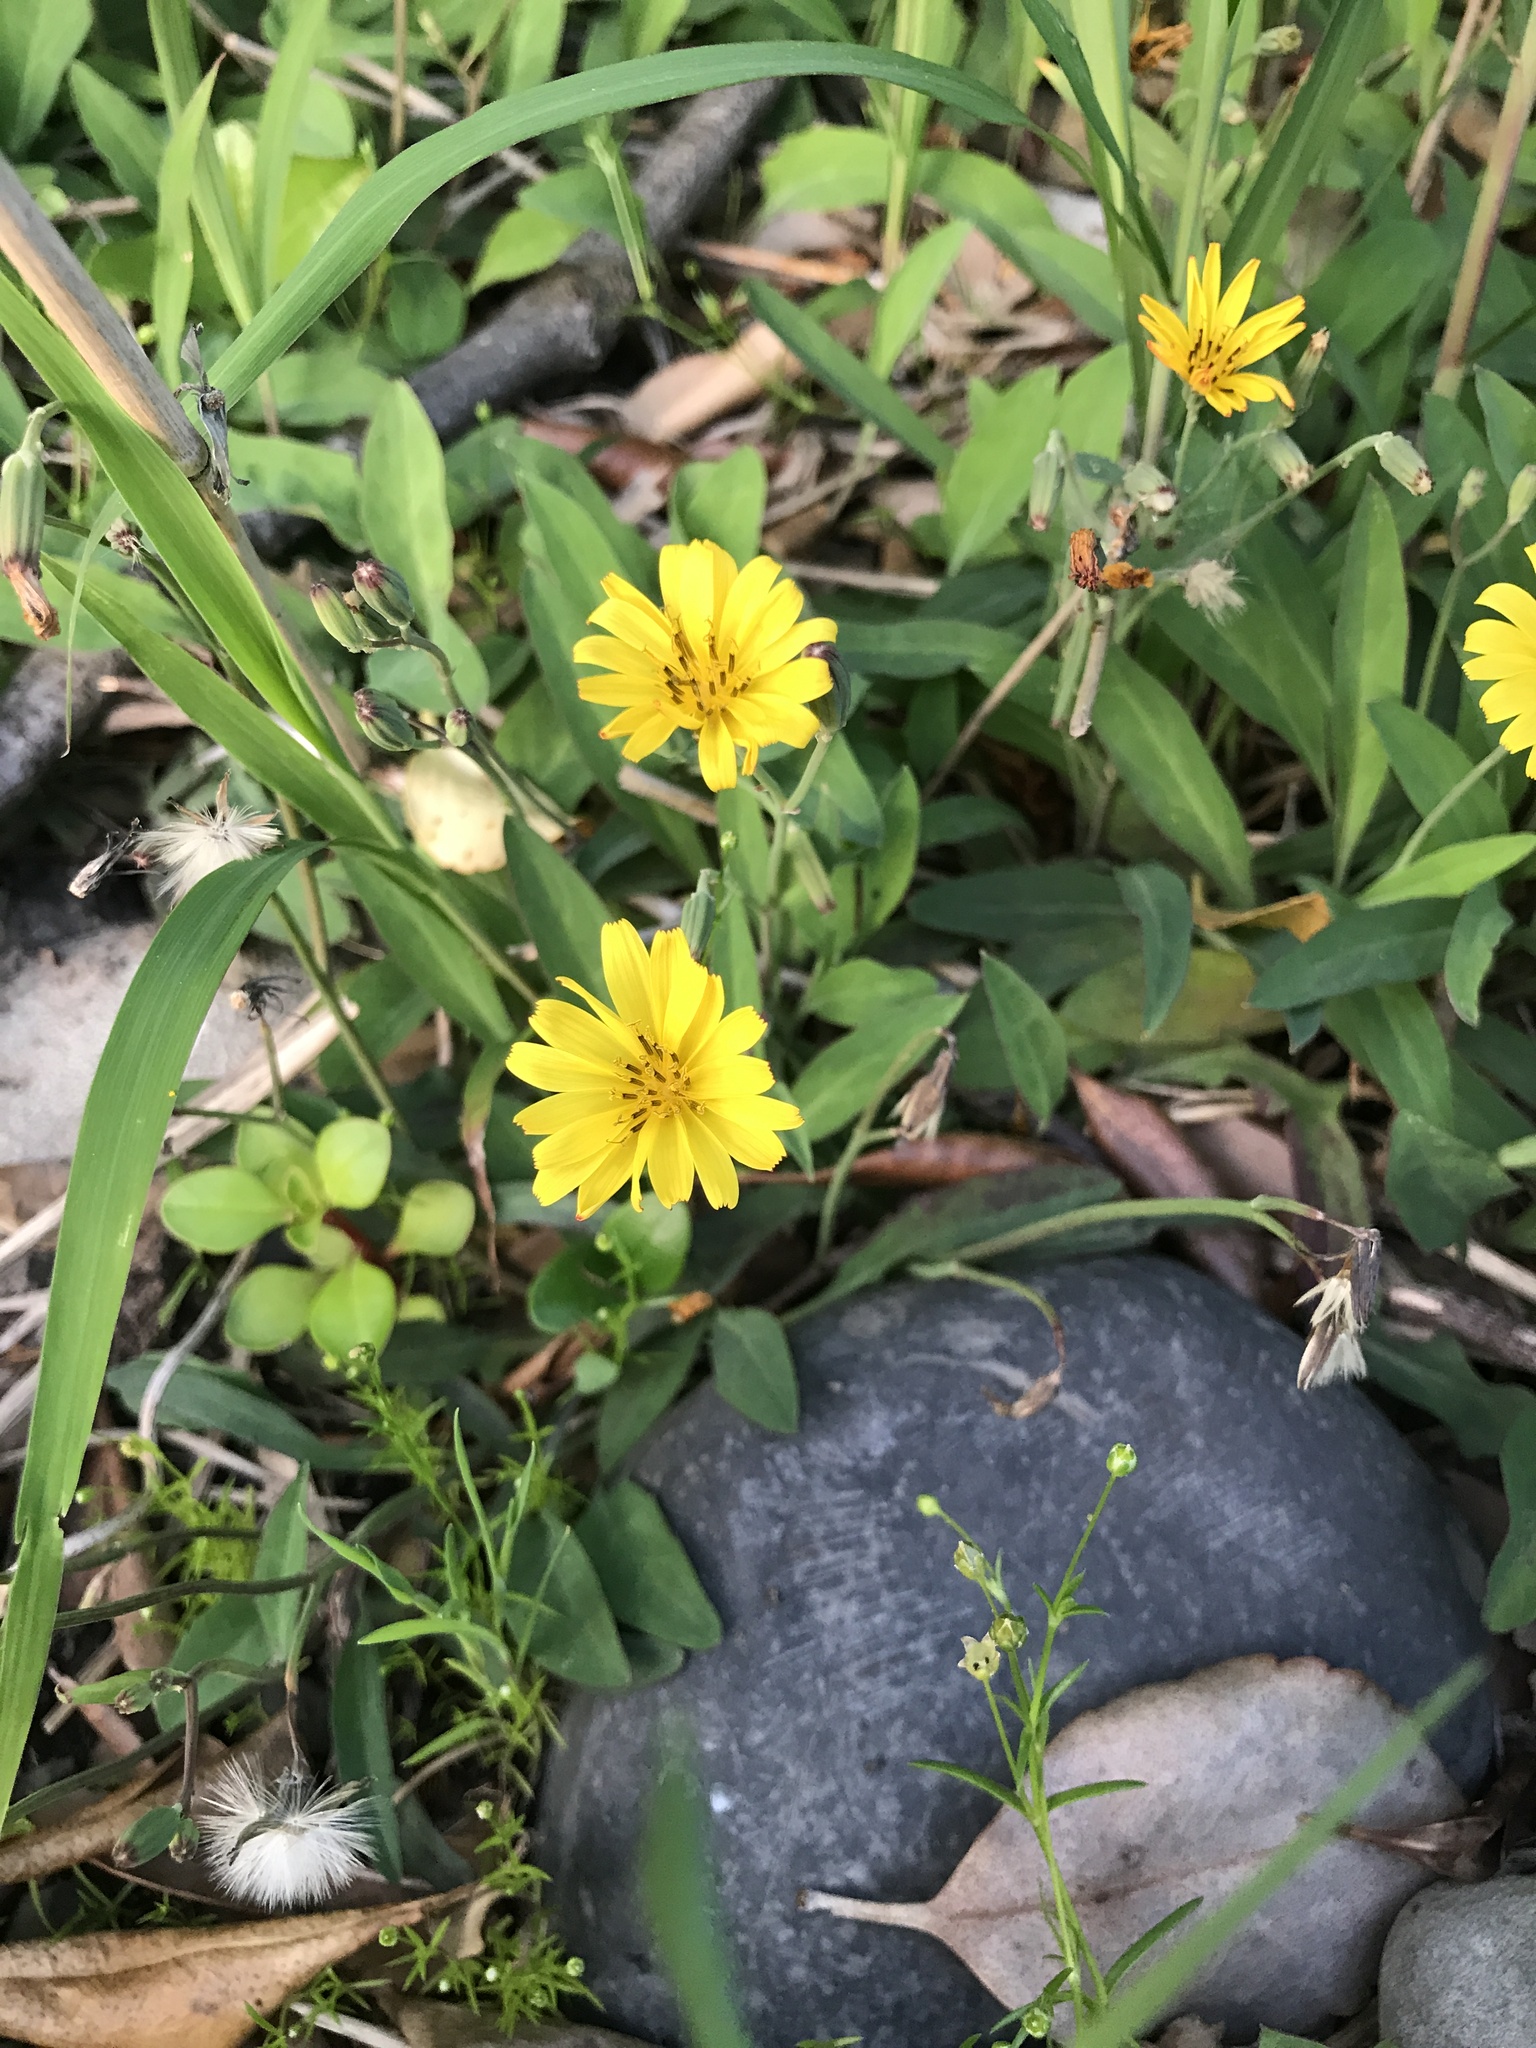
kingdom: Plantae
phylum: Tracheophyta
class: Magnoliopsida
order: Asterales
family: Asteraceae
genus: Ixeris
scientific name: Ixeris japonica
